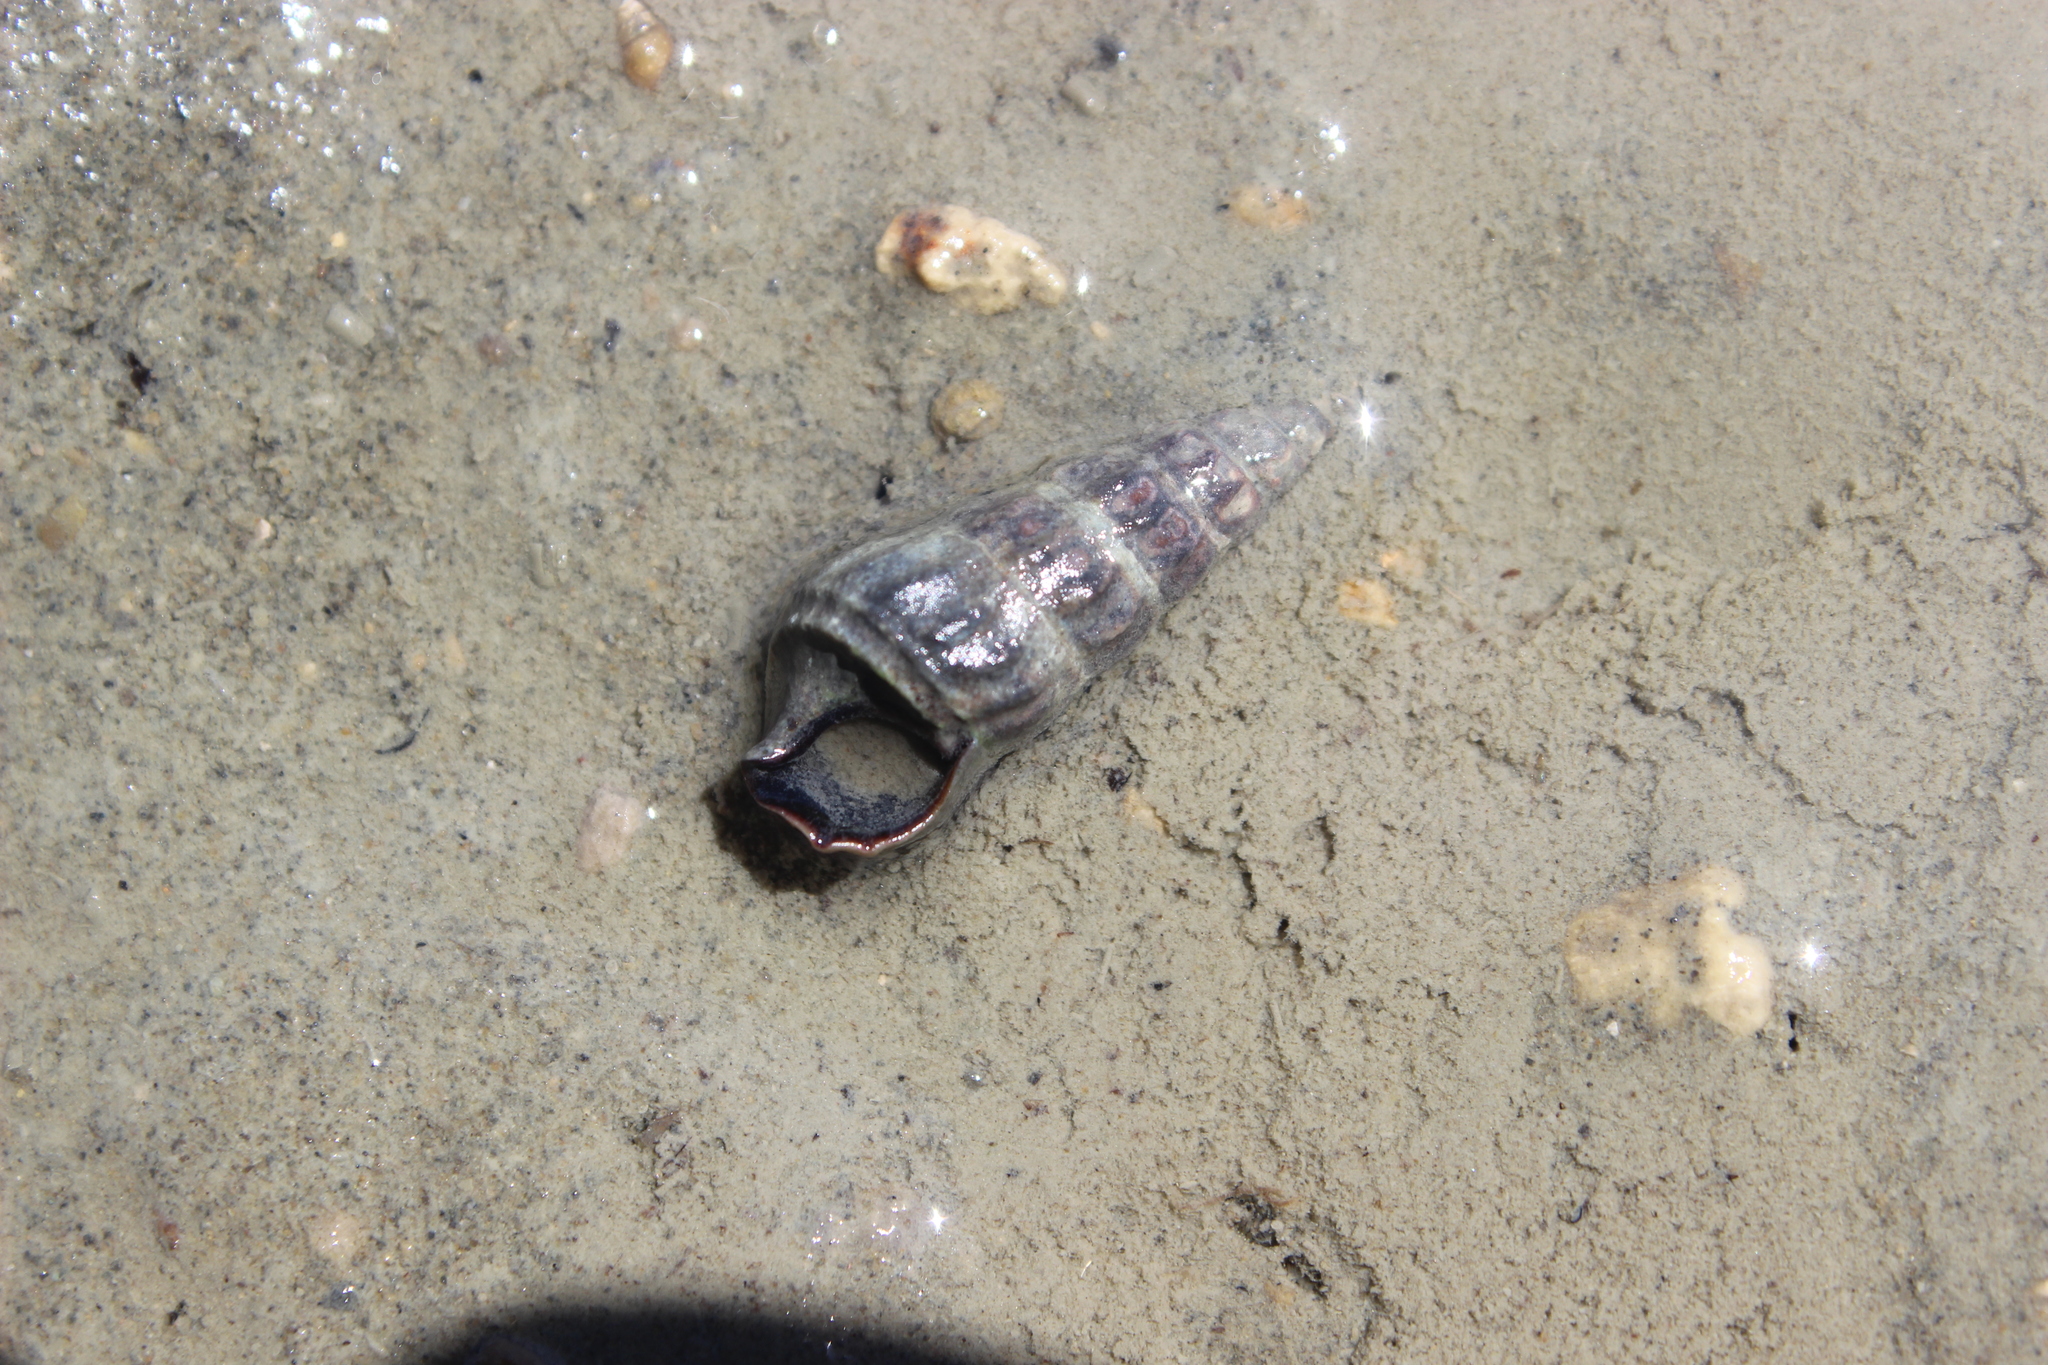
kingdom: Animalia
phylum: Mollusca
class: Gastropoda
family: Batillariidae
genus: Zeacumantus
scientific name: Zeacumantus lutulentus
